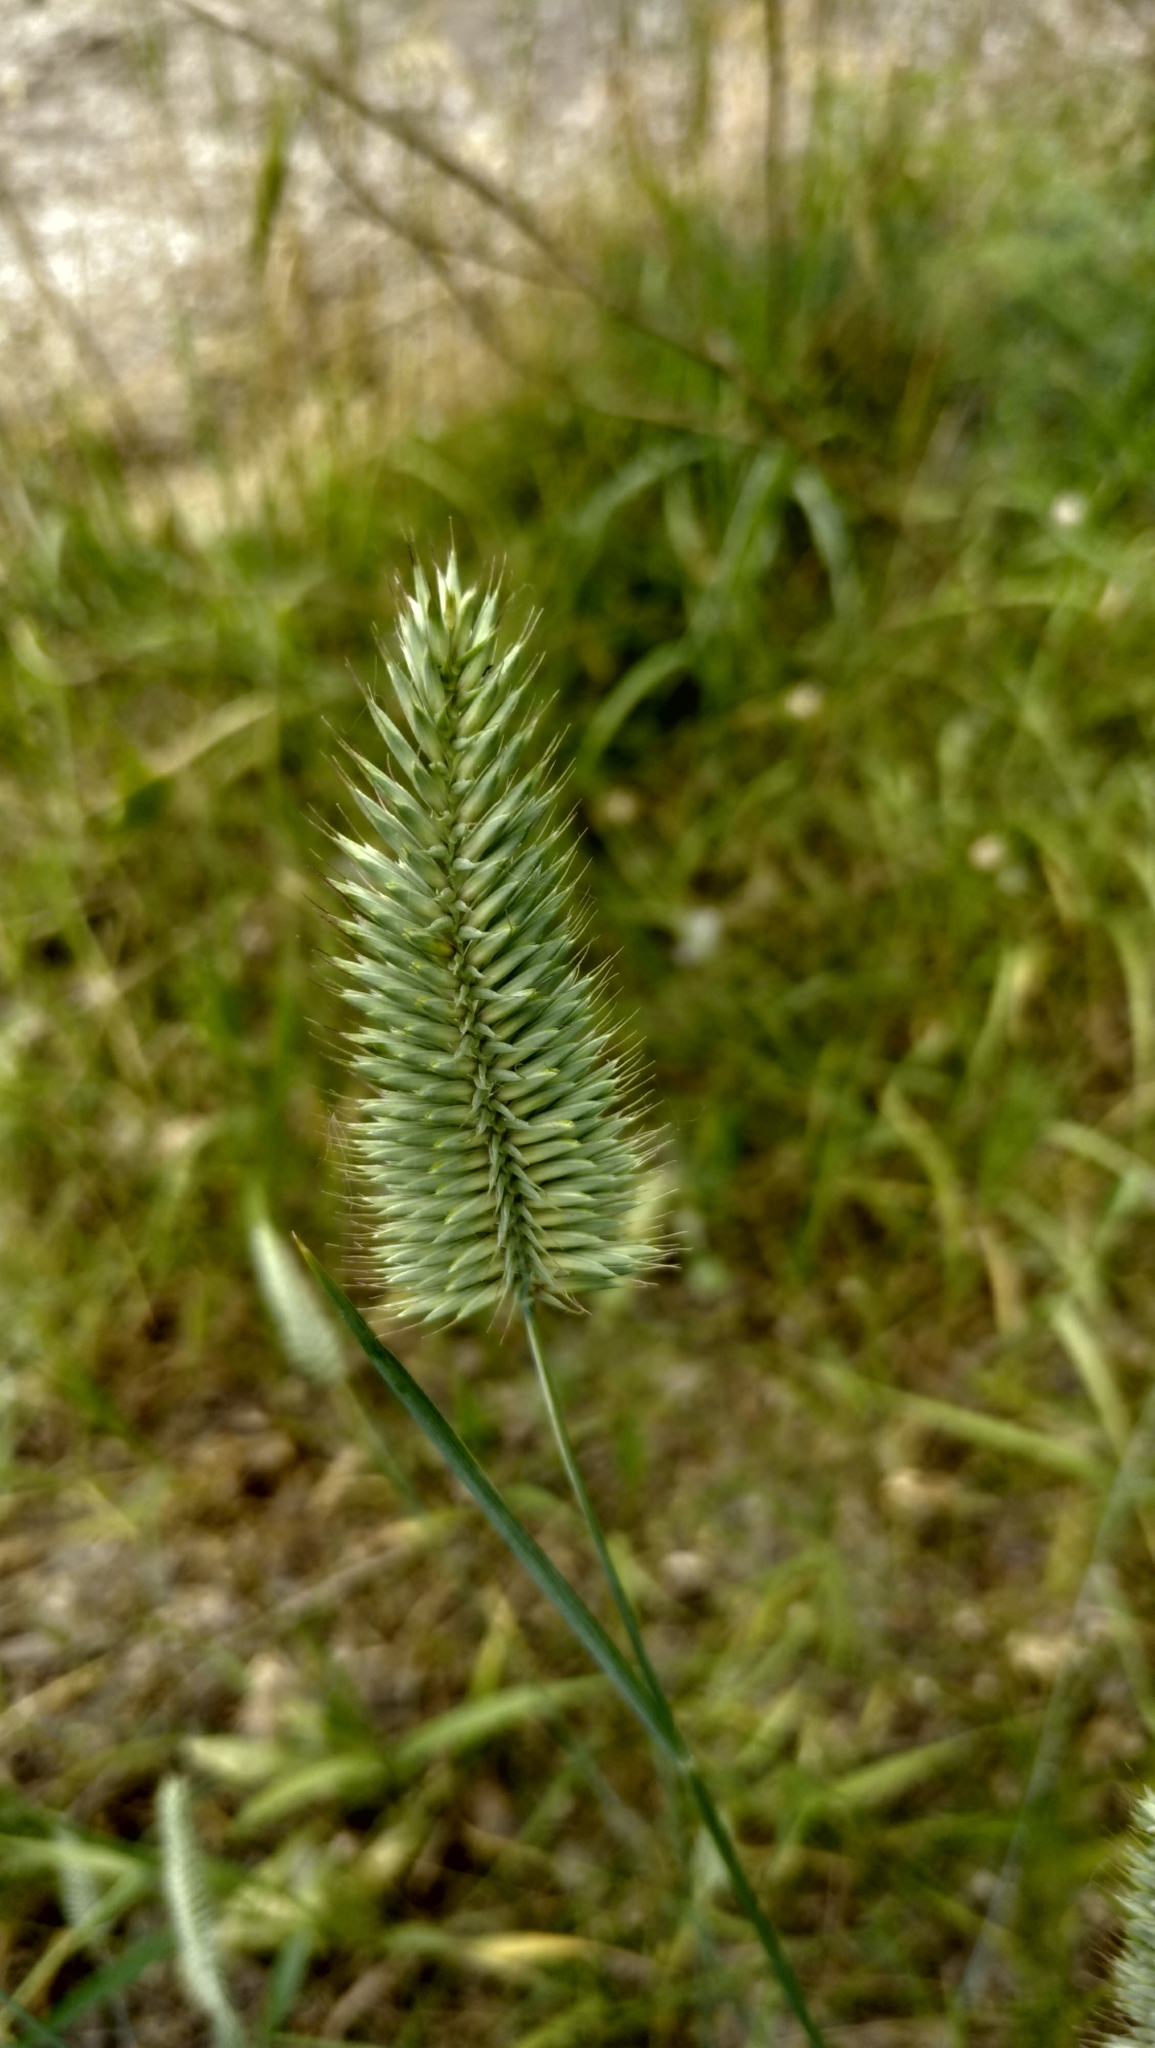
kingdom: Plantae
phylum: Tracheophyta
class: Liliopsida
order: Poales
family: Poaceae
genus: Agropyron
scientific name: Agropyron cristatum
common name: Crested wheatgrass
